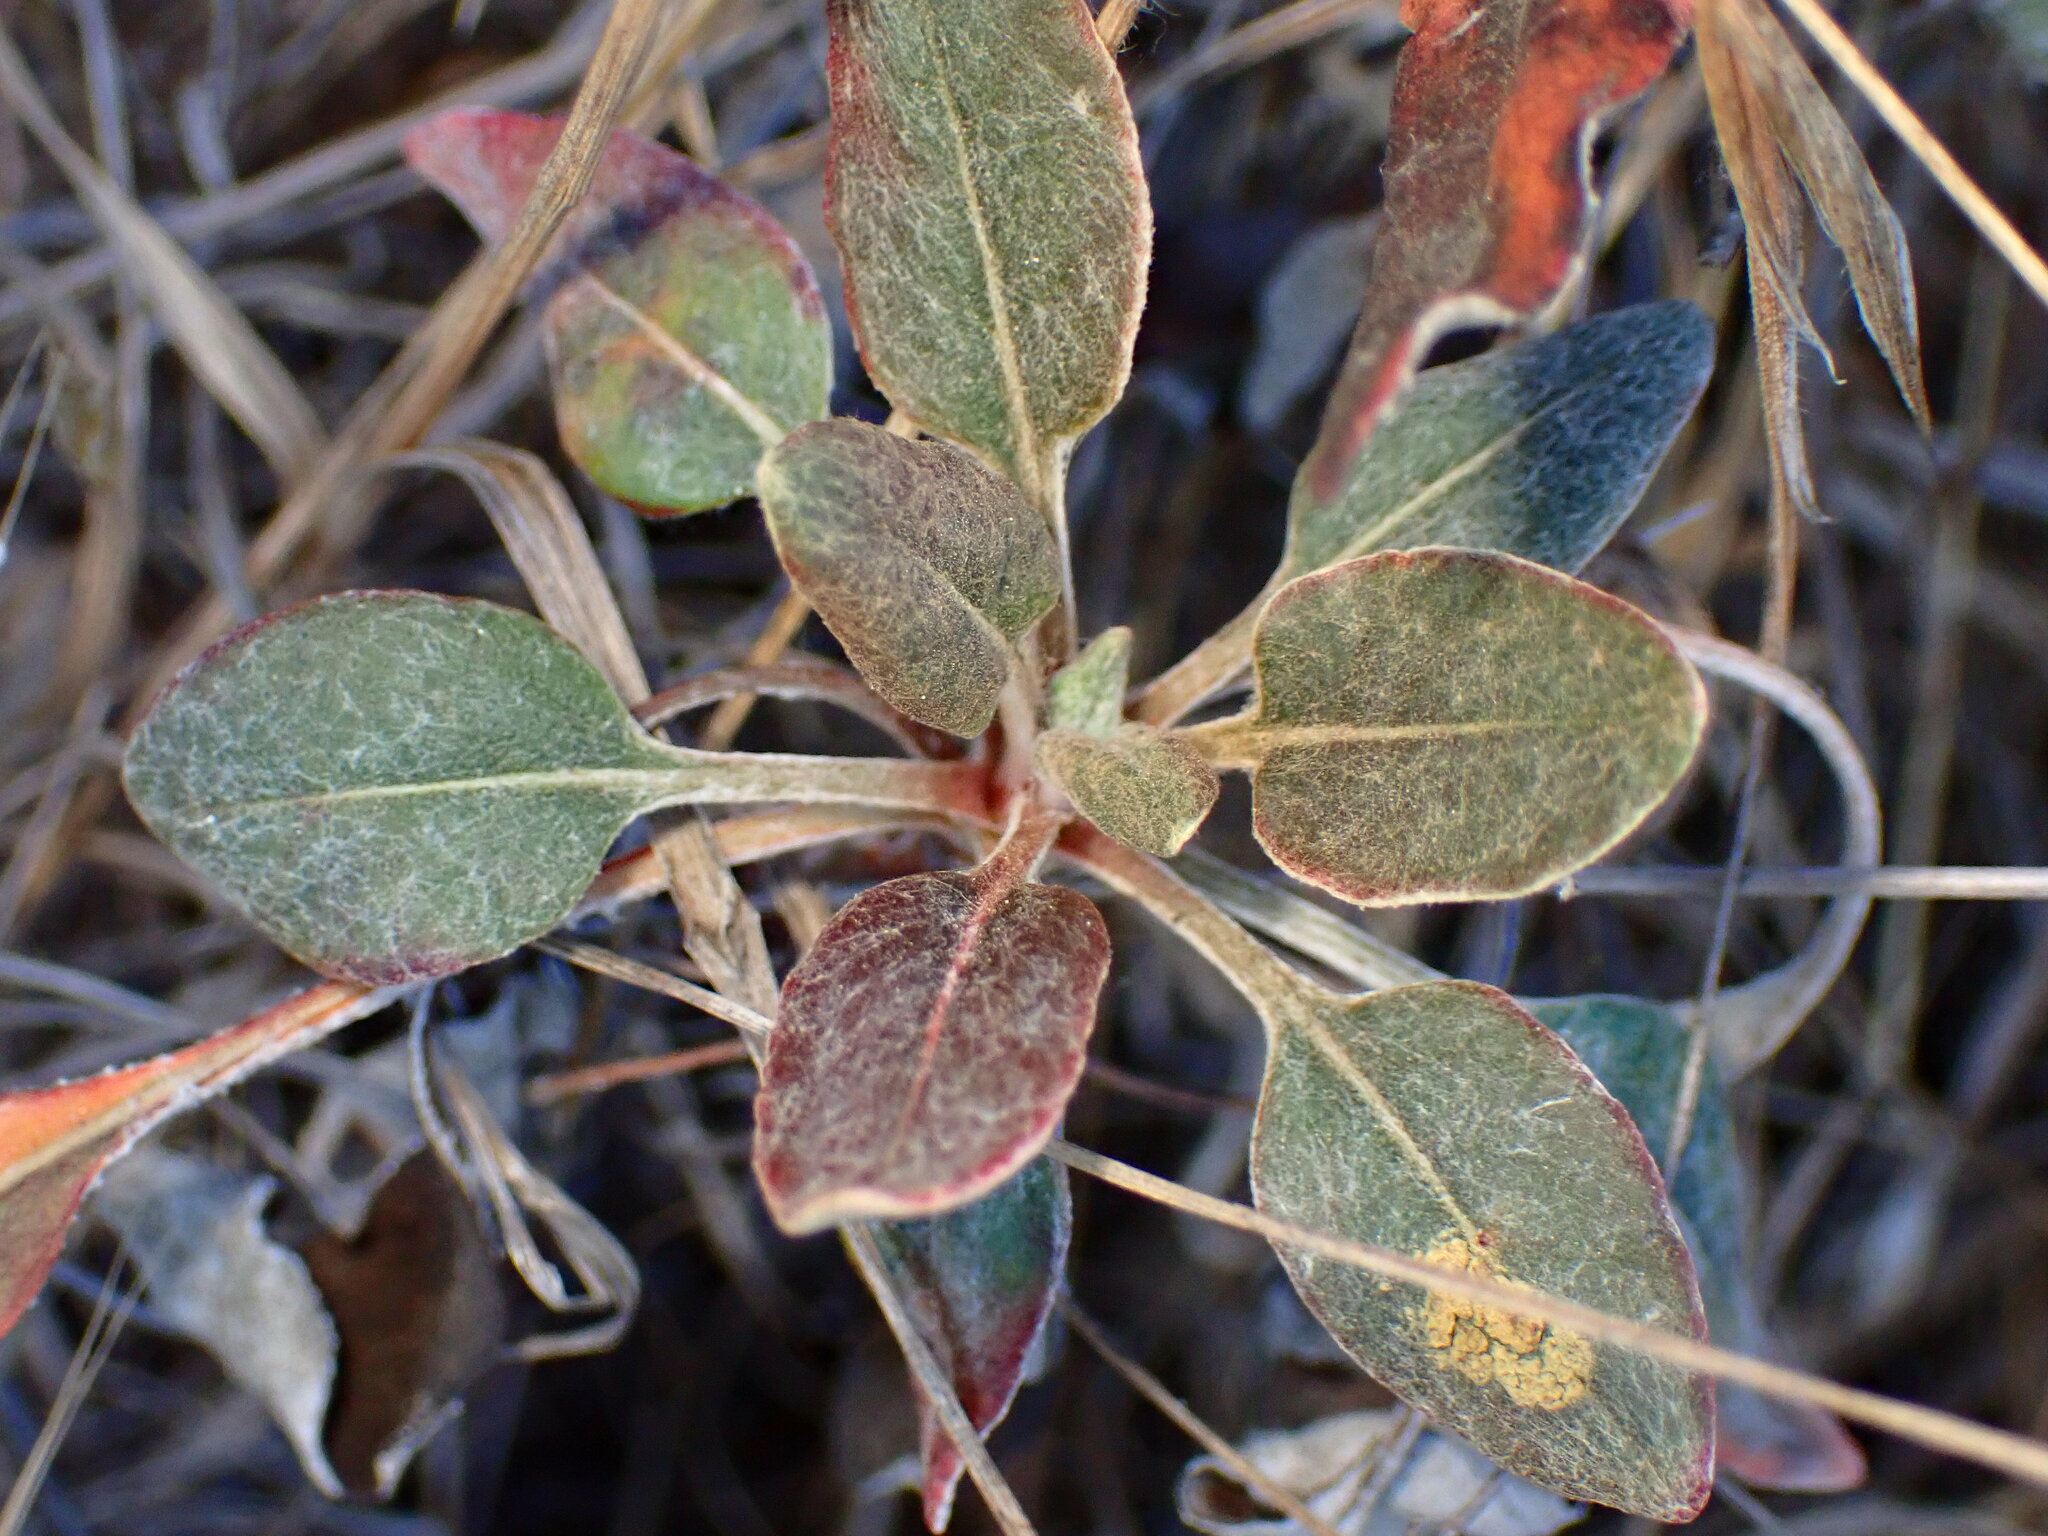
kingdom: Plantae
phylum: Tracheophyta
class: Magnoliopsida
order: Caryophyllales
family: Polygonaceae
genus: Eriogonum
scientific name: Eriogonum nudum
